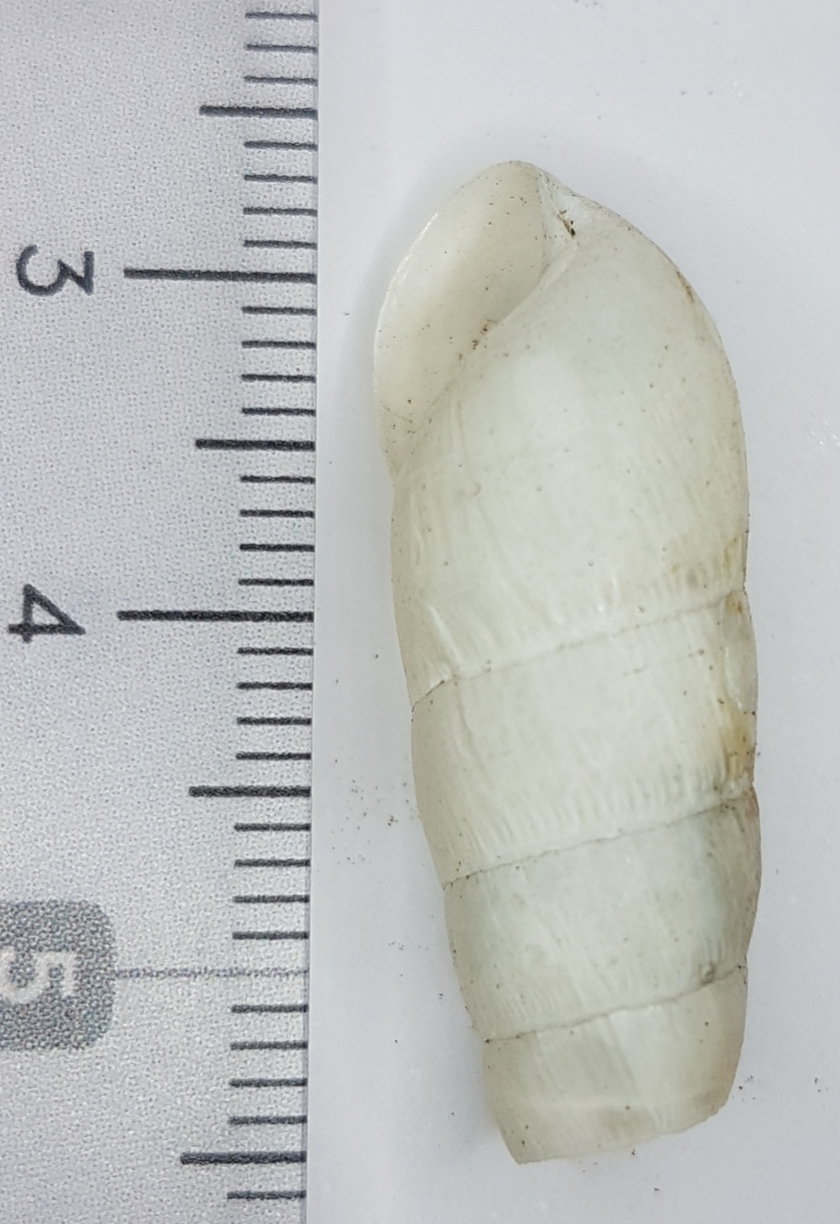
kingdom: Animalia
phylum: Mollusca
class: Gastropoda
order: Stylommatophora
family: Achatinidae
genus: Rumina
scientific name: Rumina decollata
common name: Decollate snail
